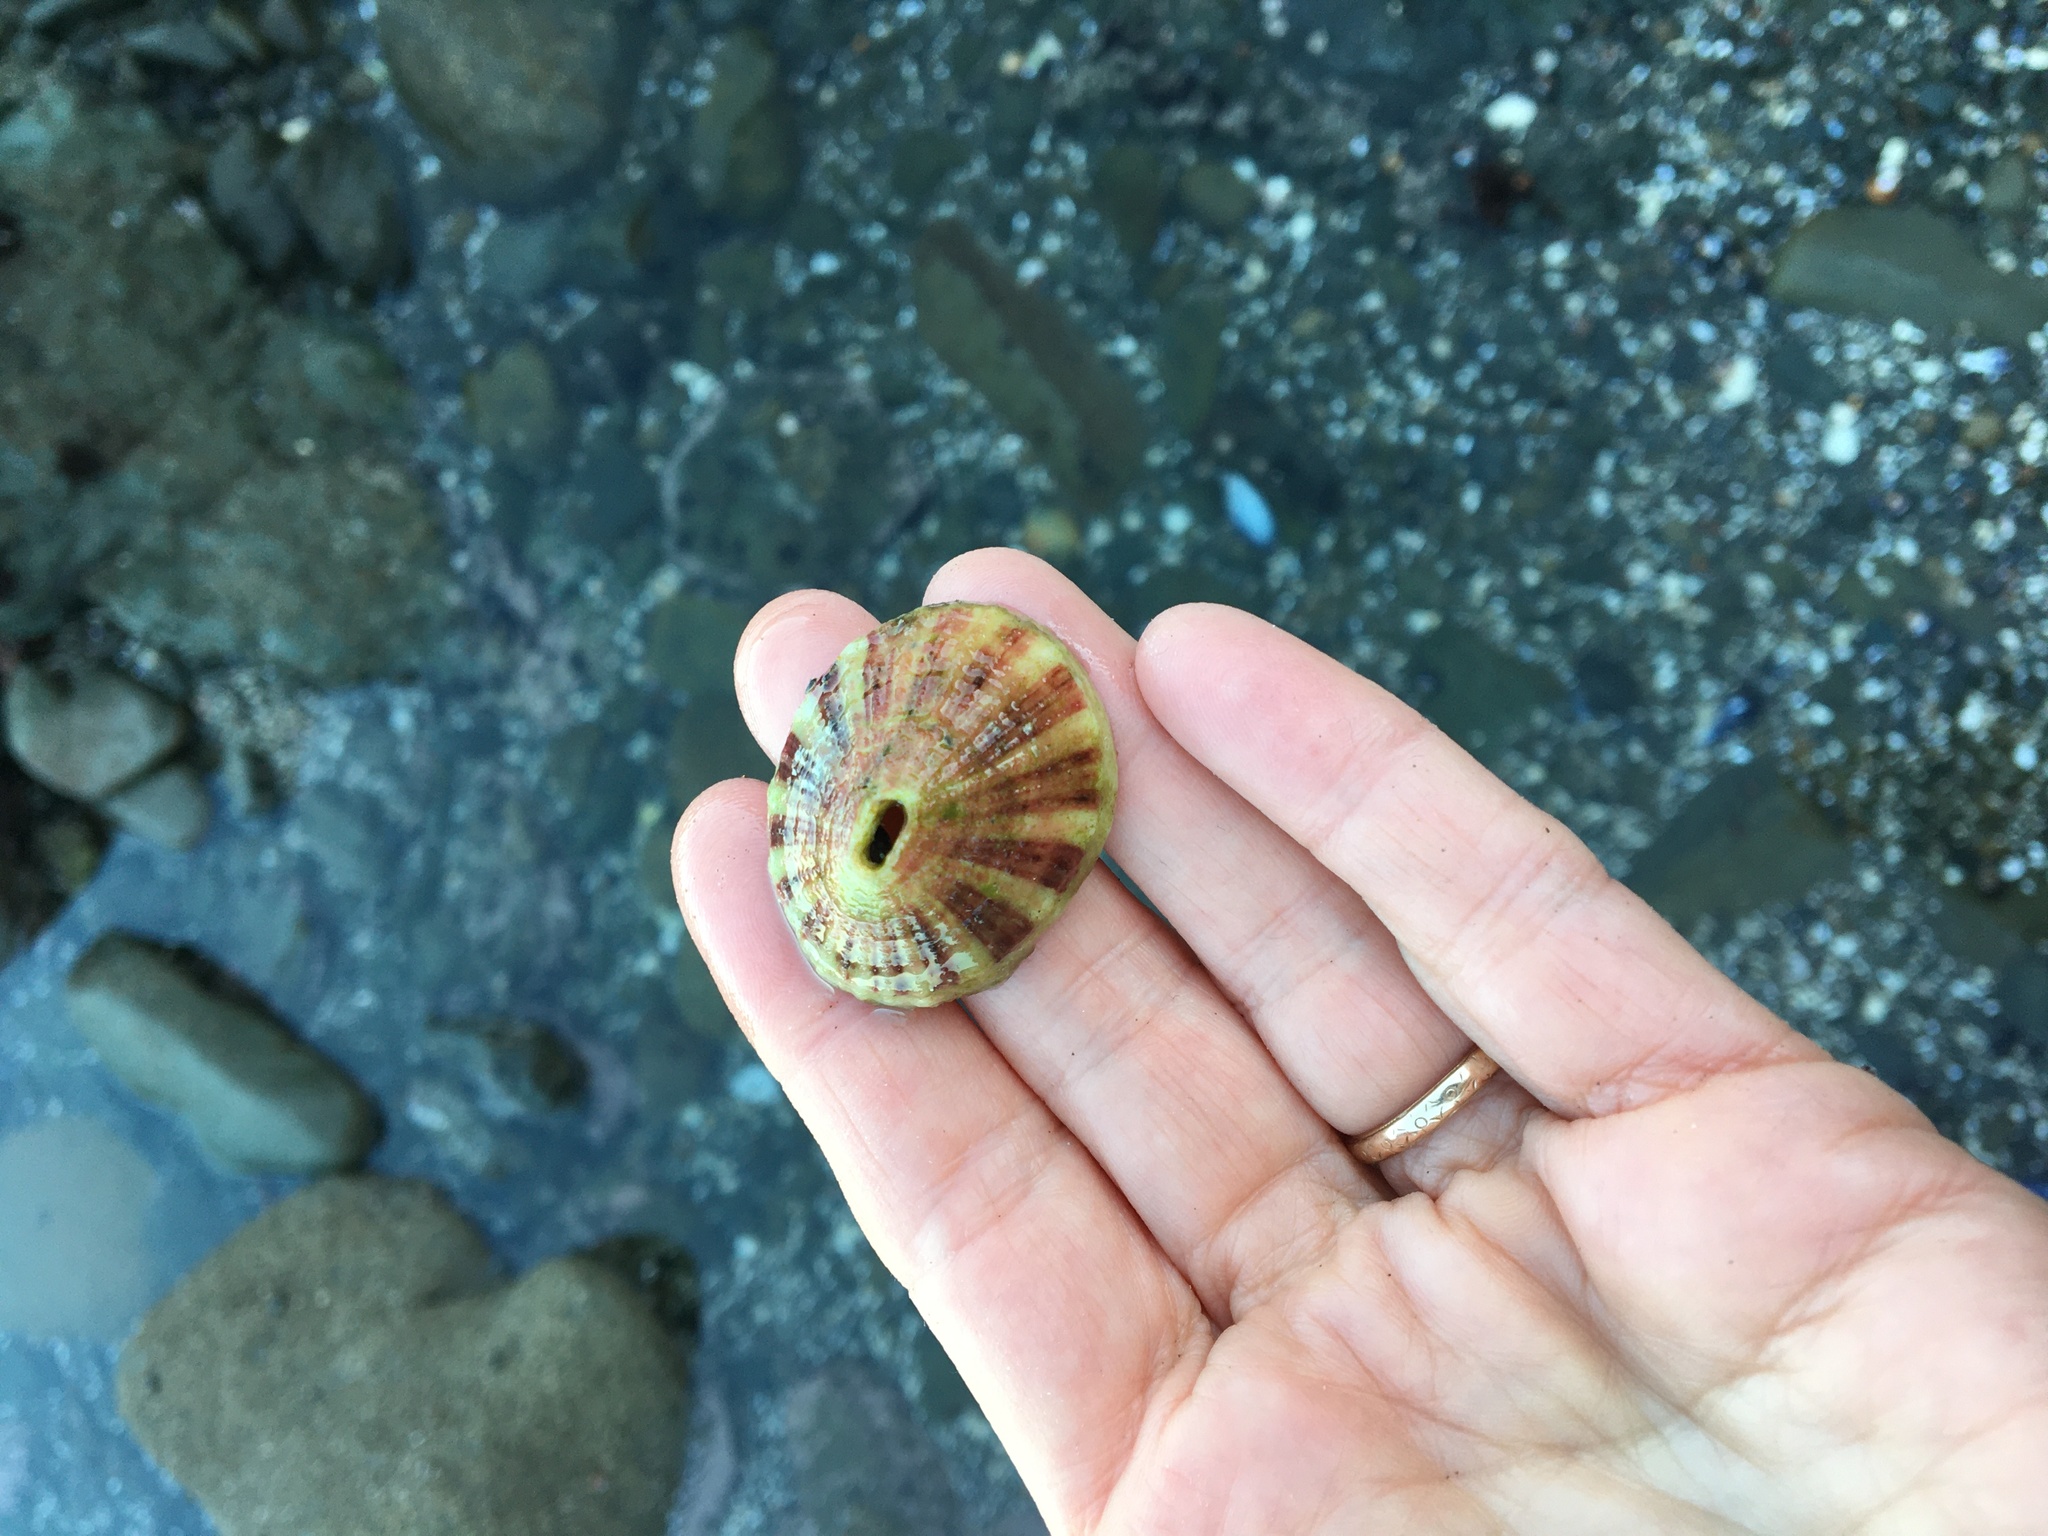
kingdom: Animalia
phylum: Mollusca
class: Gastropoda
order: Lepetellida
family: Fissurellidae
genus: Fissurella
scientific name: Fissurella volcano
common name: Volcano keyhole limpet
